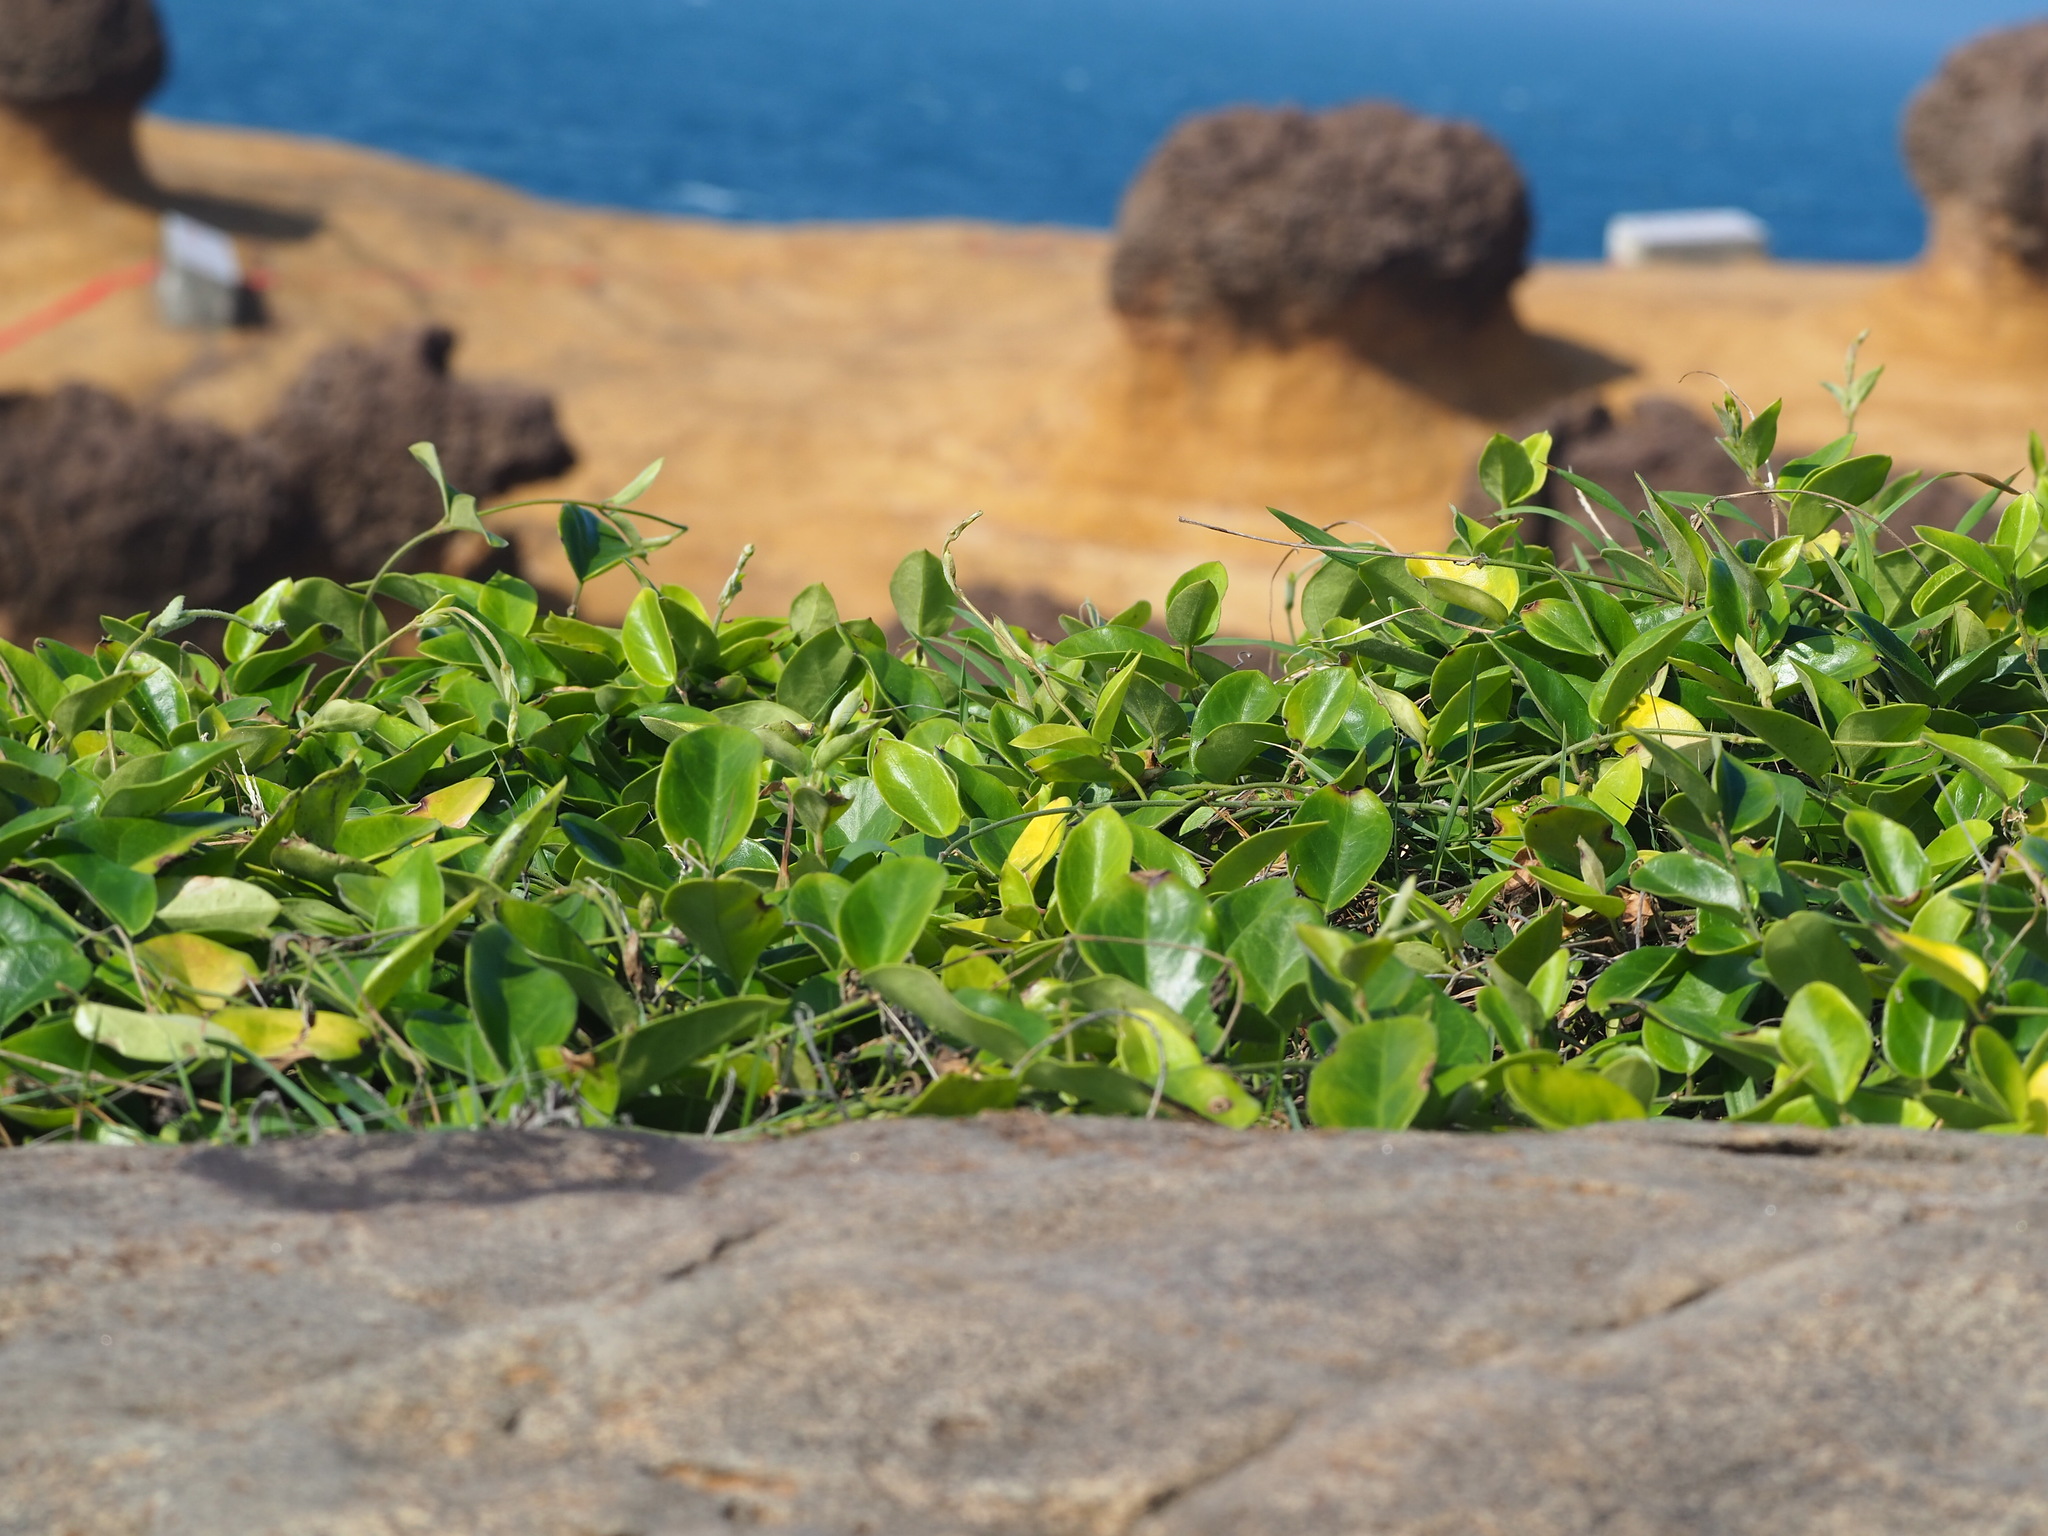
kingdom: Plantae
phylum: Tracheophyta
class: Magnoliopsida
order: Gentianales
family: Apocynaceae
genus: Vincetoxicum
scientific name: Vincetoxicum hirsutum
